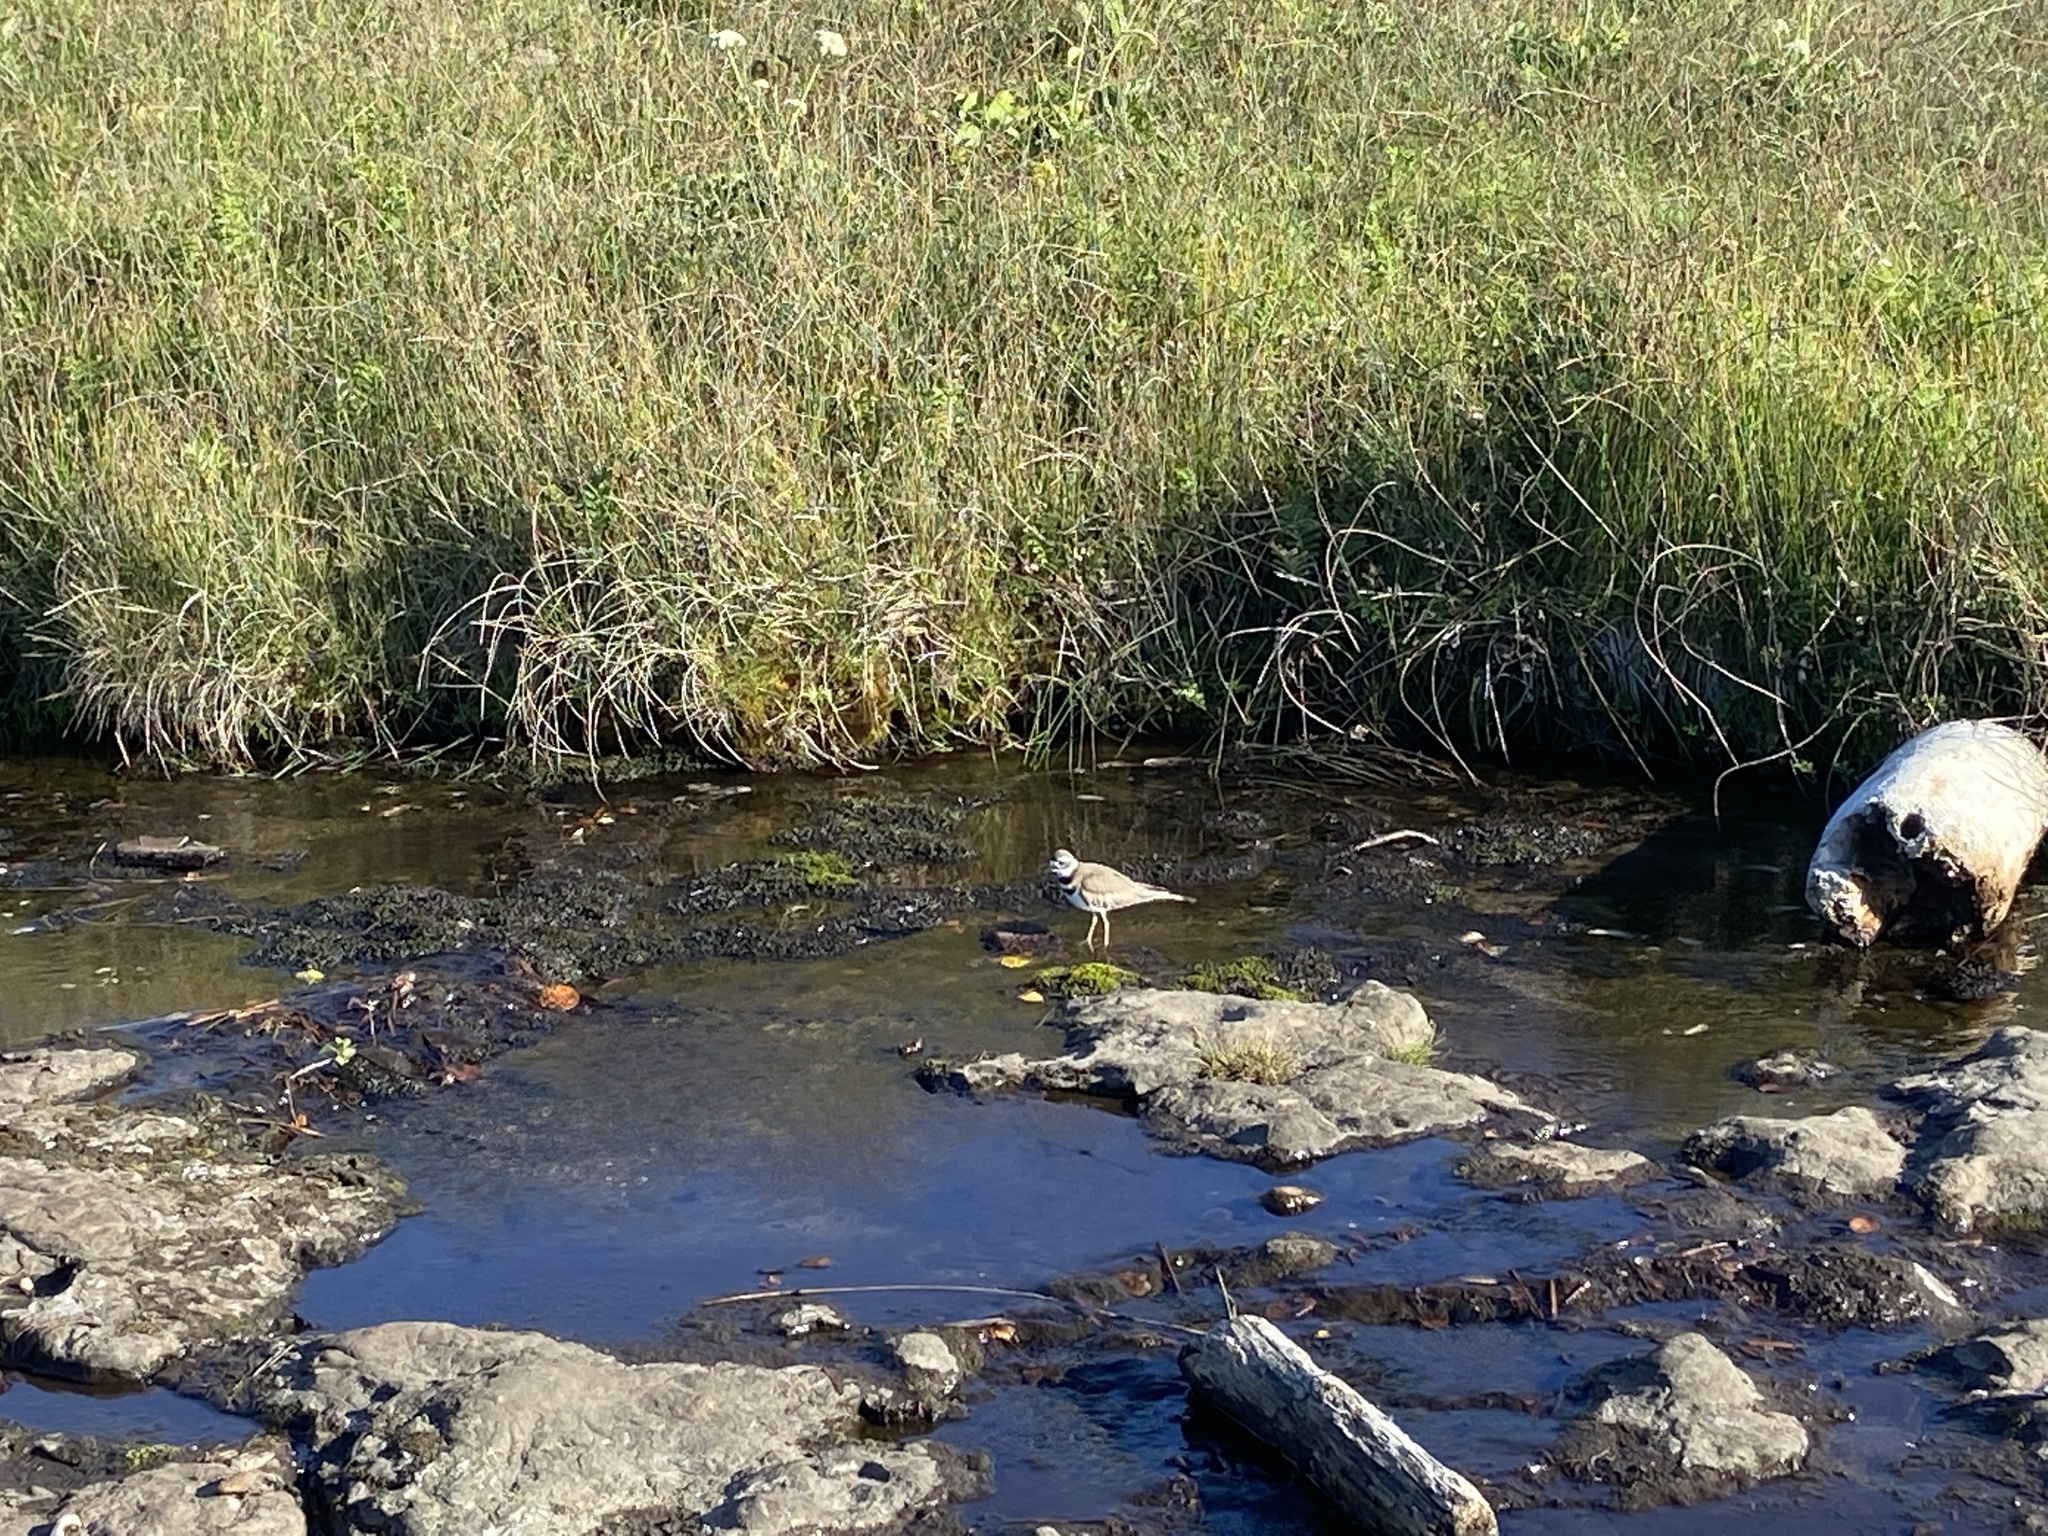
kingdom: Animalia
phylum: Chordata
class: Aves
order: Charadriiformes
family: Charadriidae
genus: Charadrius
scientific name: Charadrius vociferus
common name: Killdeer
